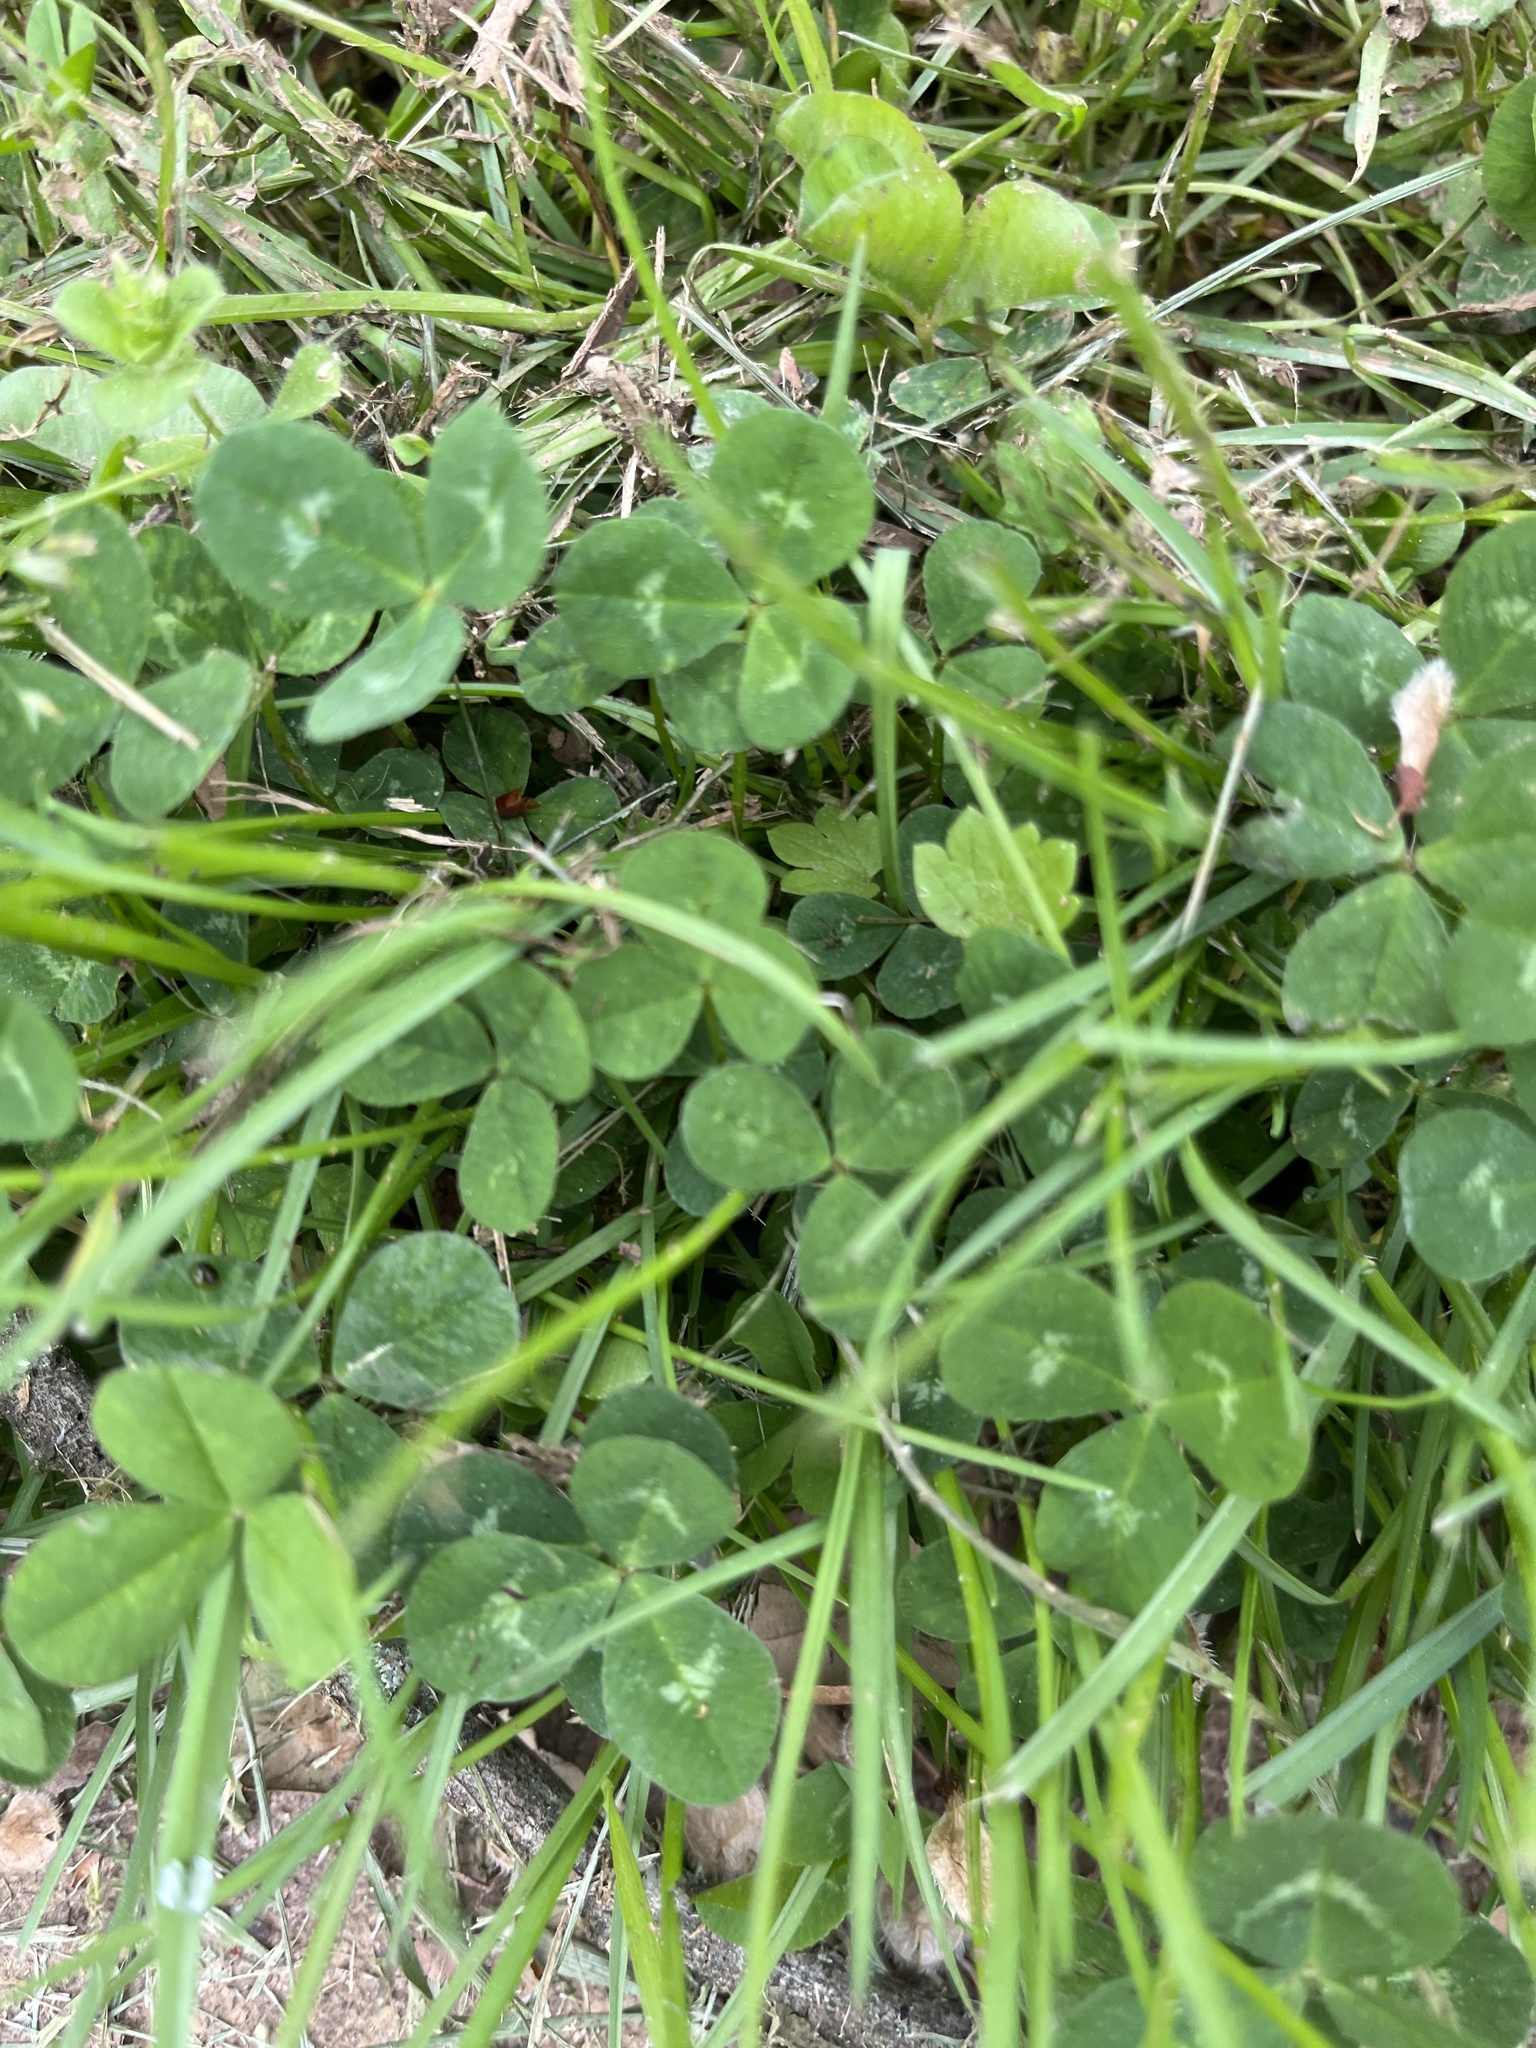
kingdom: Plantae
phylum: Tracheophyta
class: Magnoliopsida
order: Fabales
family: Fabaceae
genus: Trifolium
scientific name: Trifolium repens
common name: White clover
